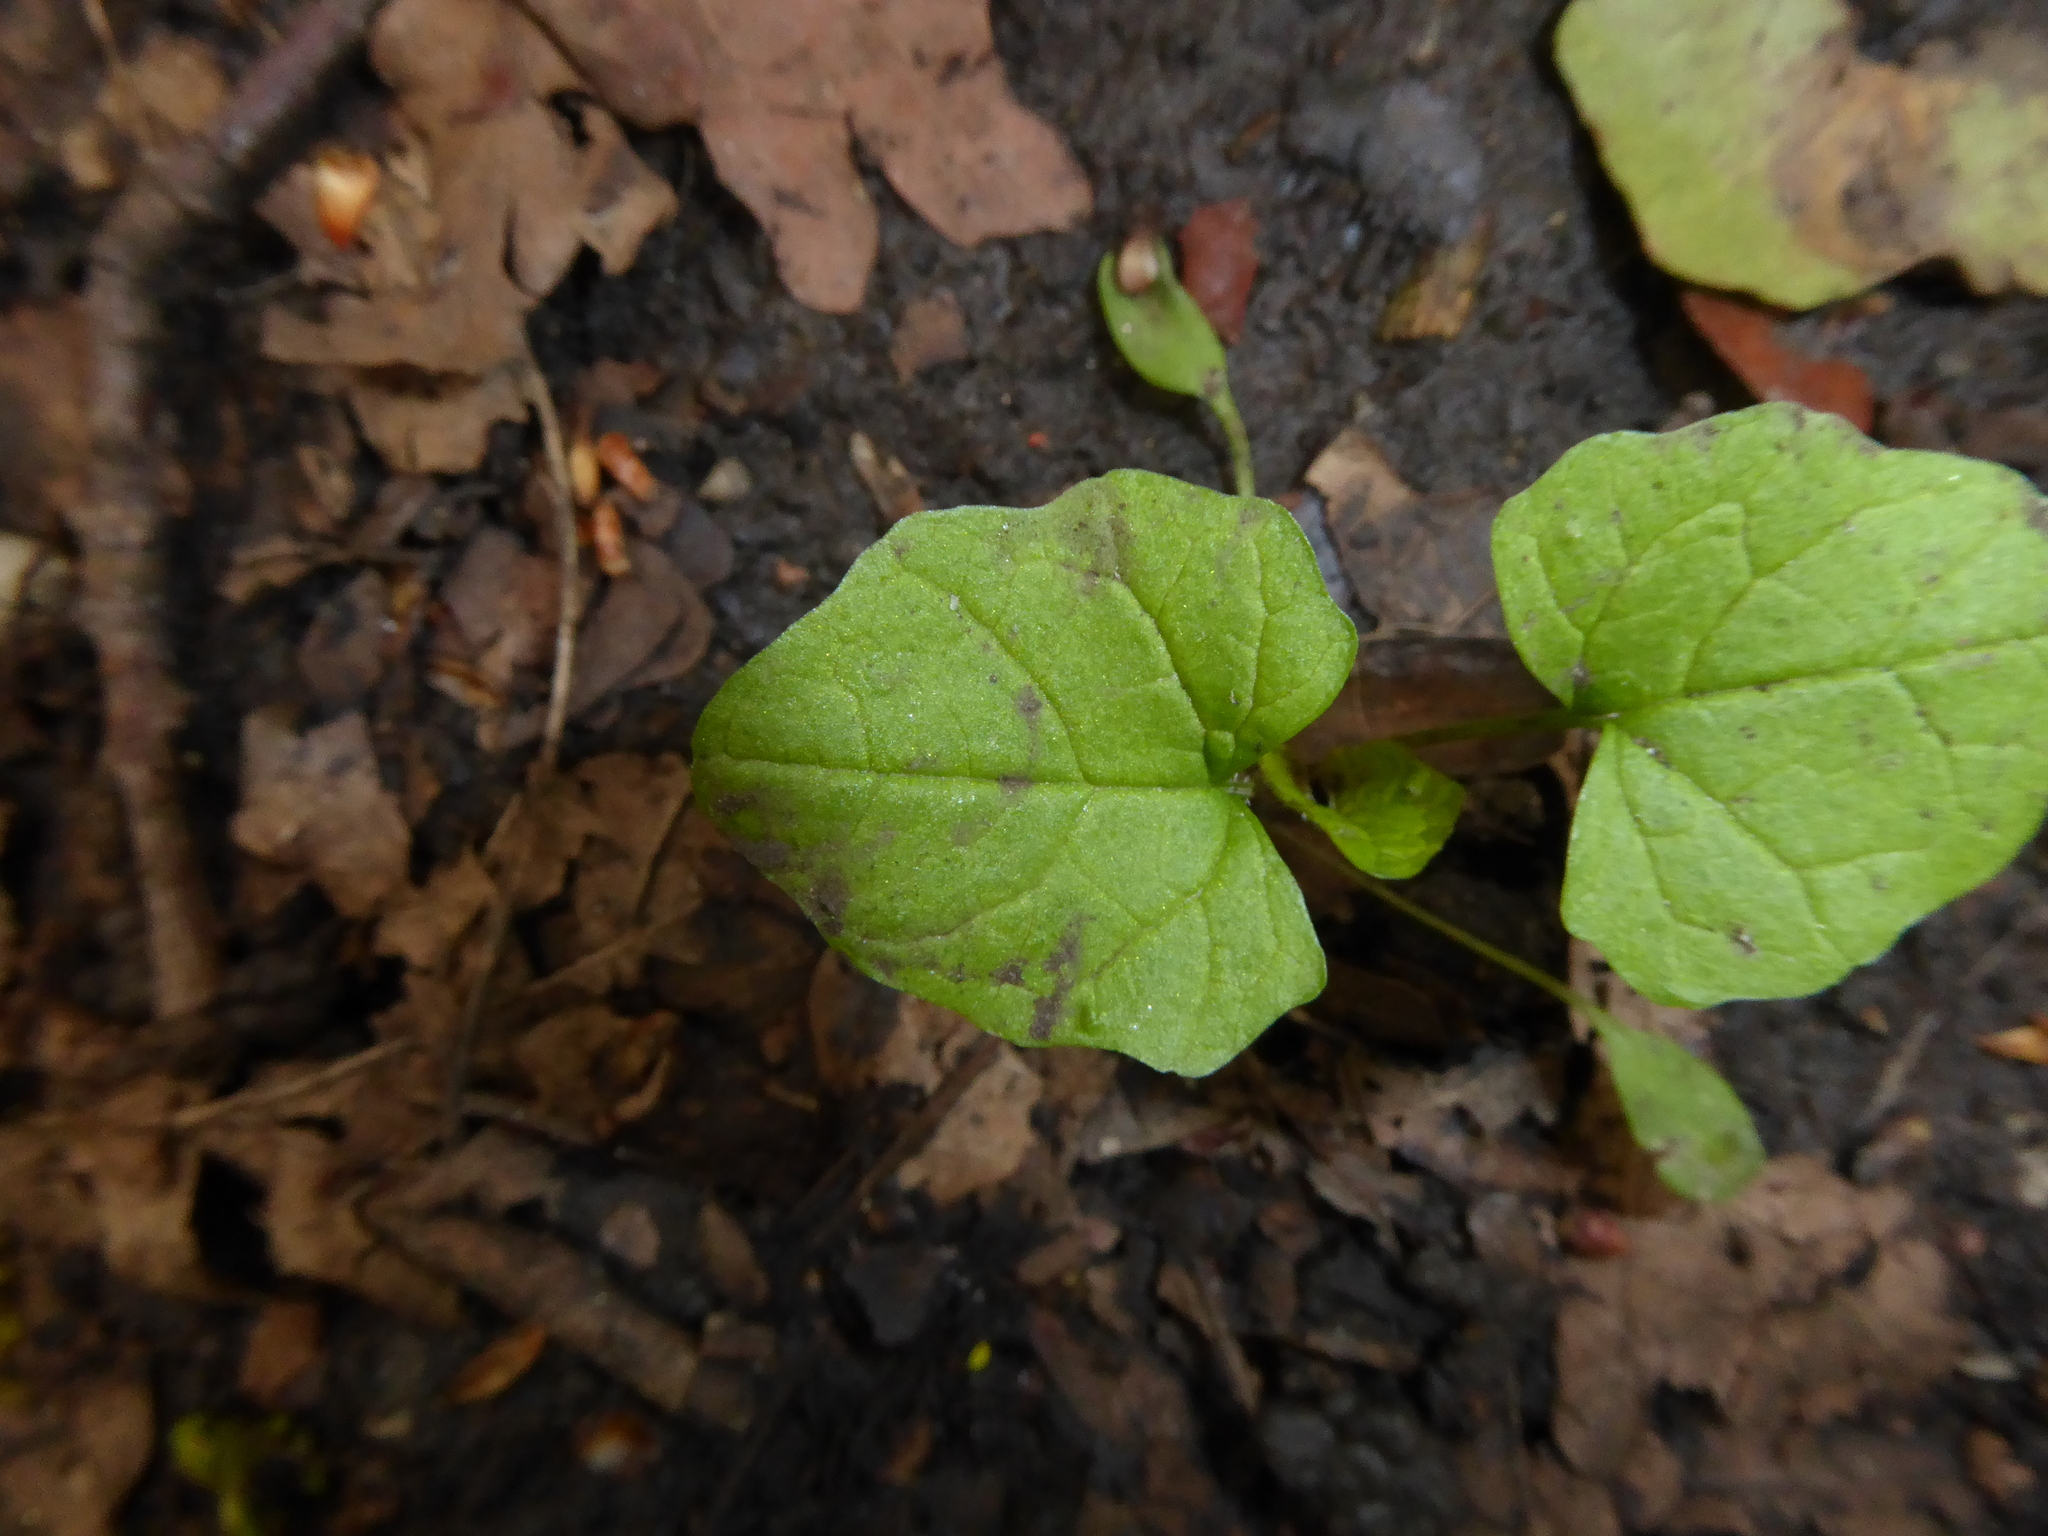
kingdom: Plantae
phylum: Tracheophyta
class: Magnoliopsida
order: Asterales
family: Asteraceae
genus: Lapsana
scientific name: Lapsana communis
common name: Nipplewort
